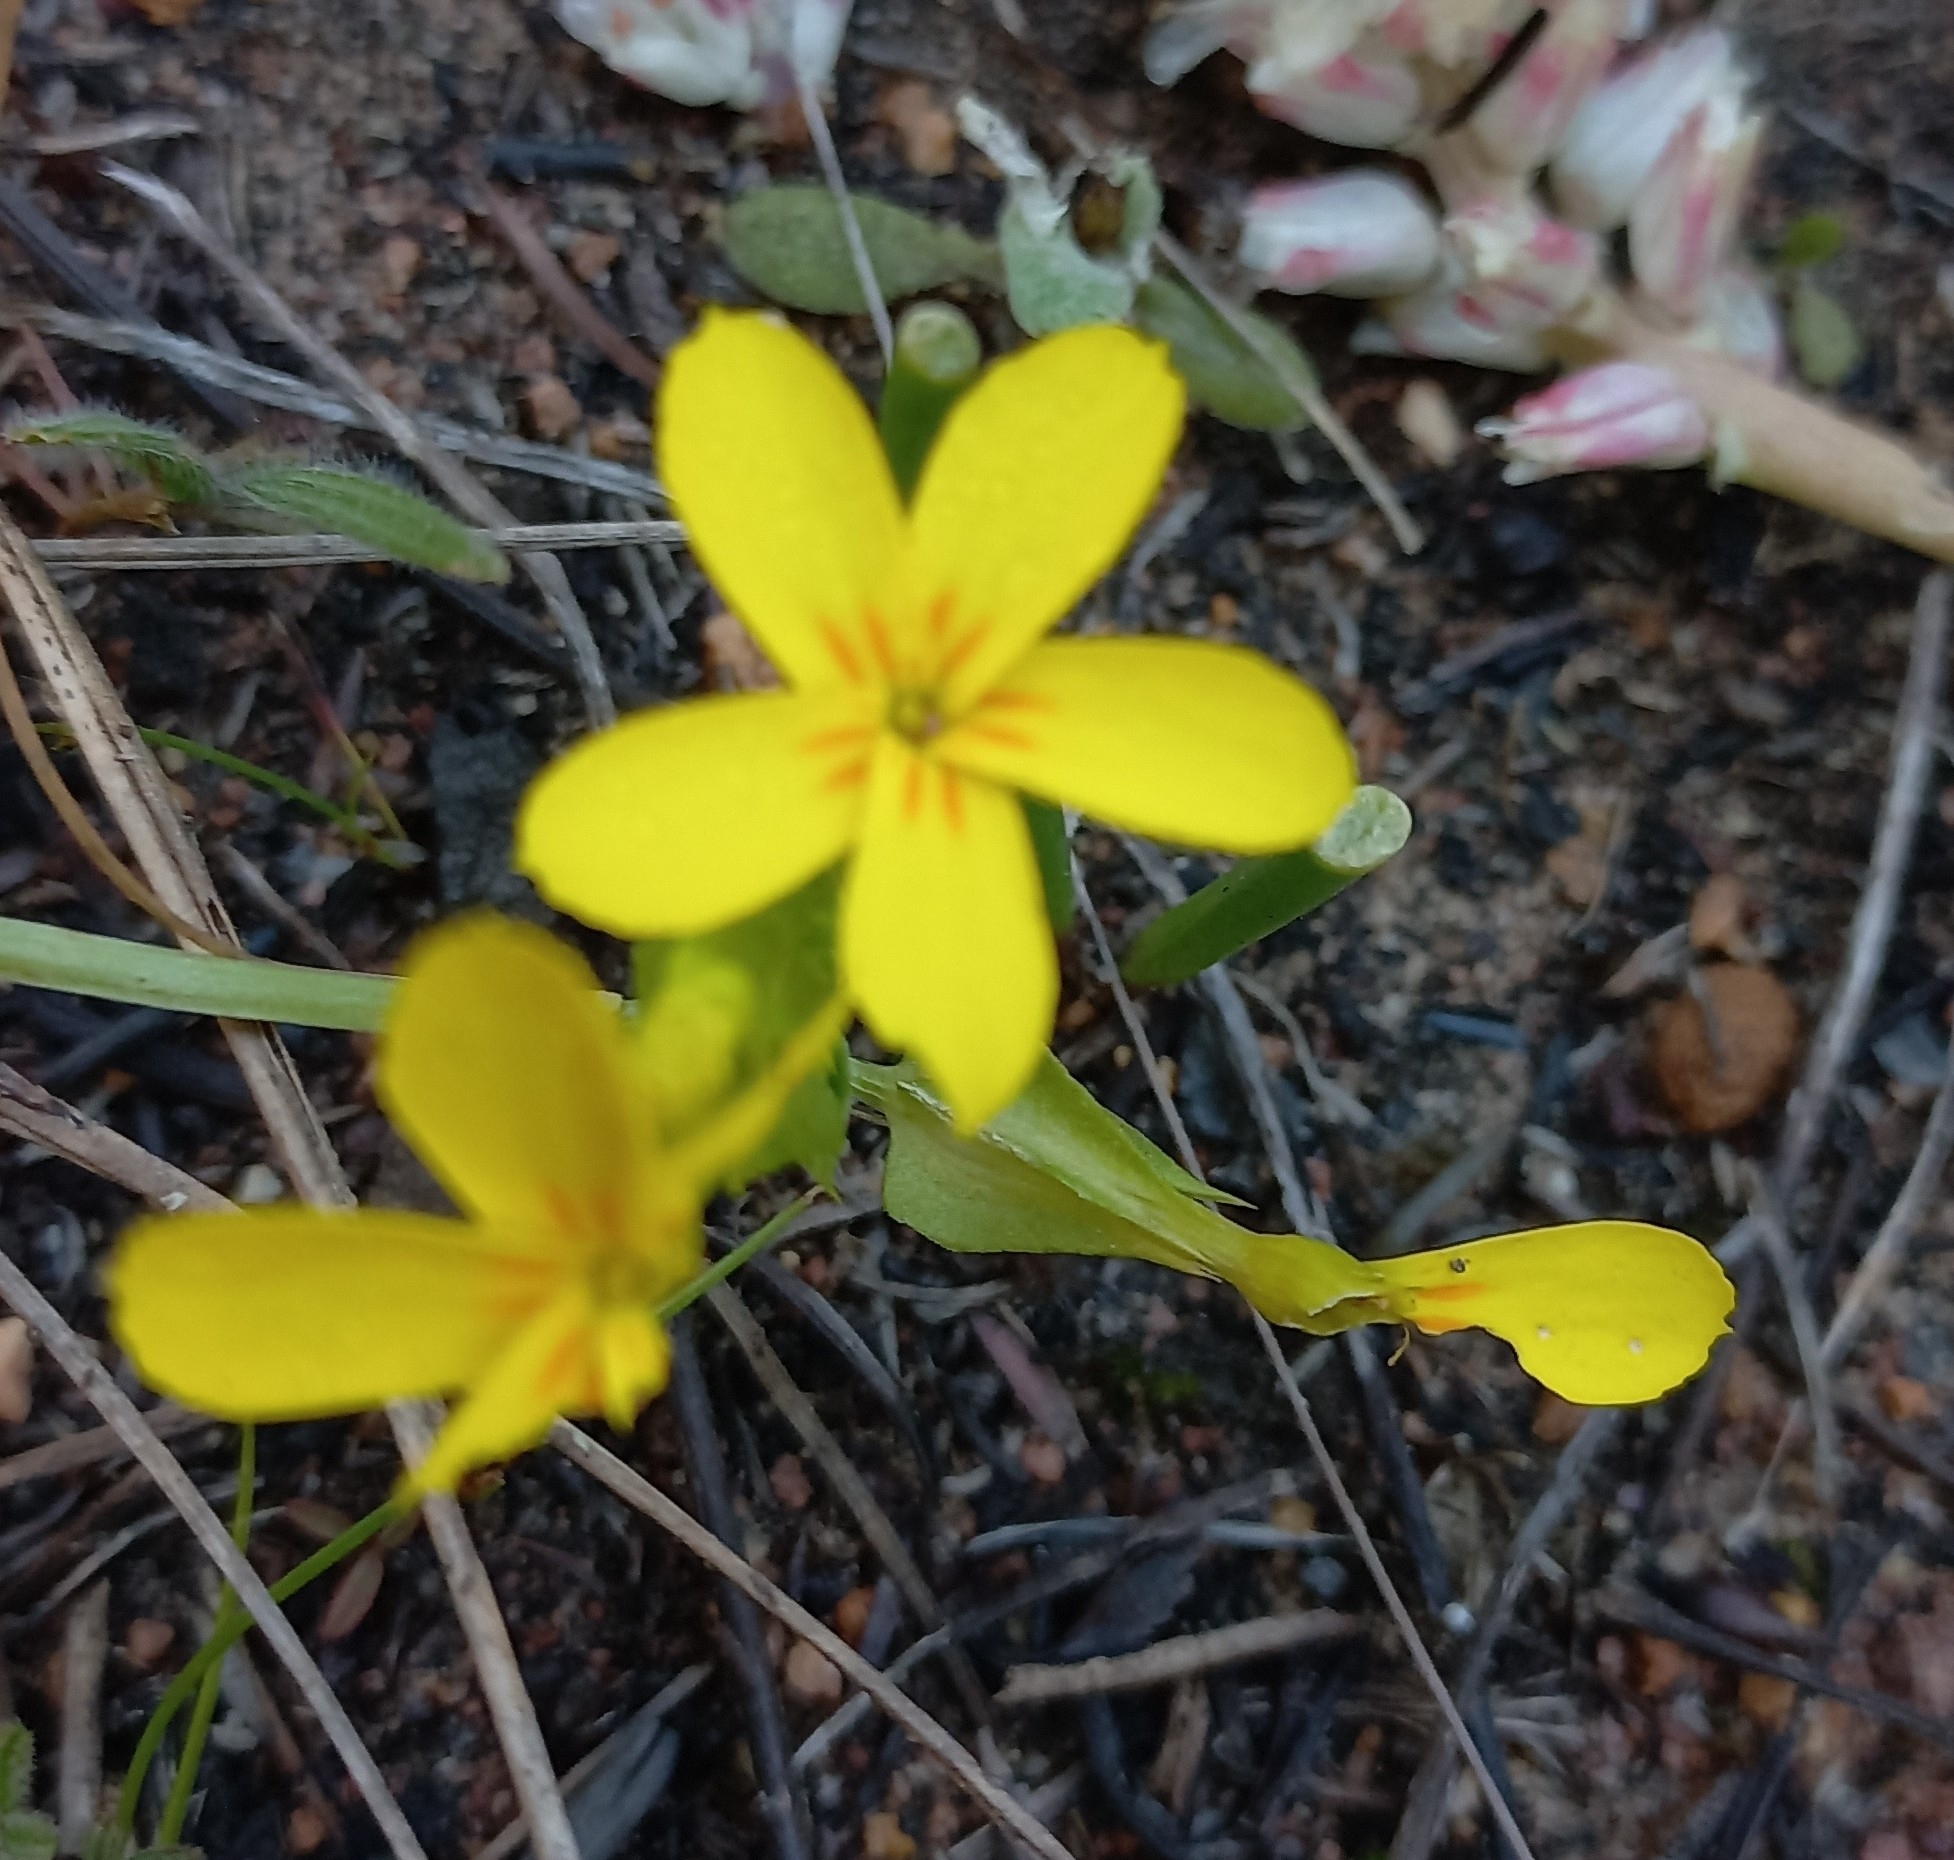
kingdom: Plantae
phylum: Tracheophyta
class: Magnoliopsida
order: Gentianales
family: Gentianaceae
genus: Sebaea
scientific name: Sebaea exacoides
